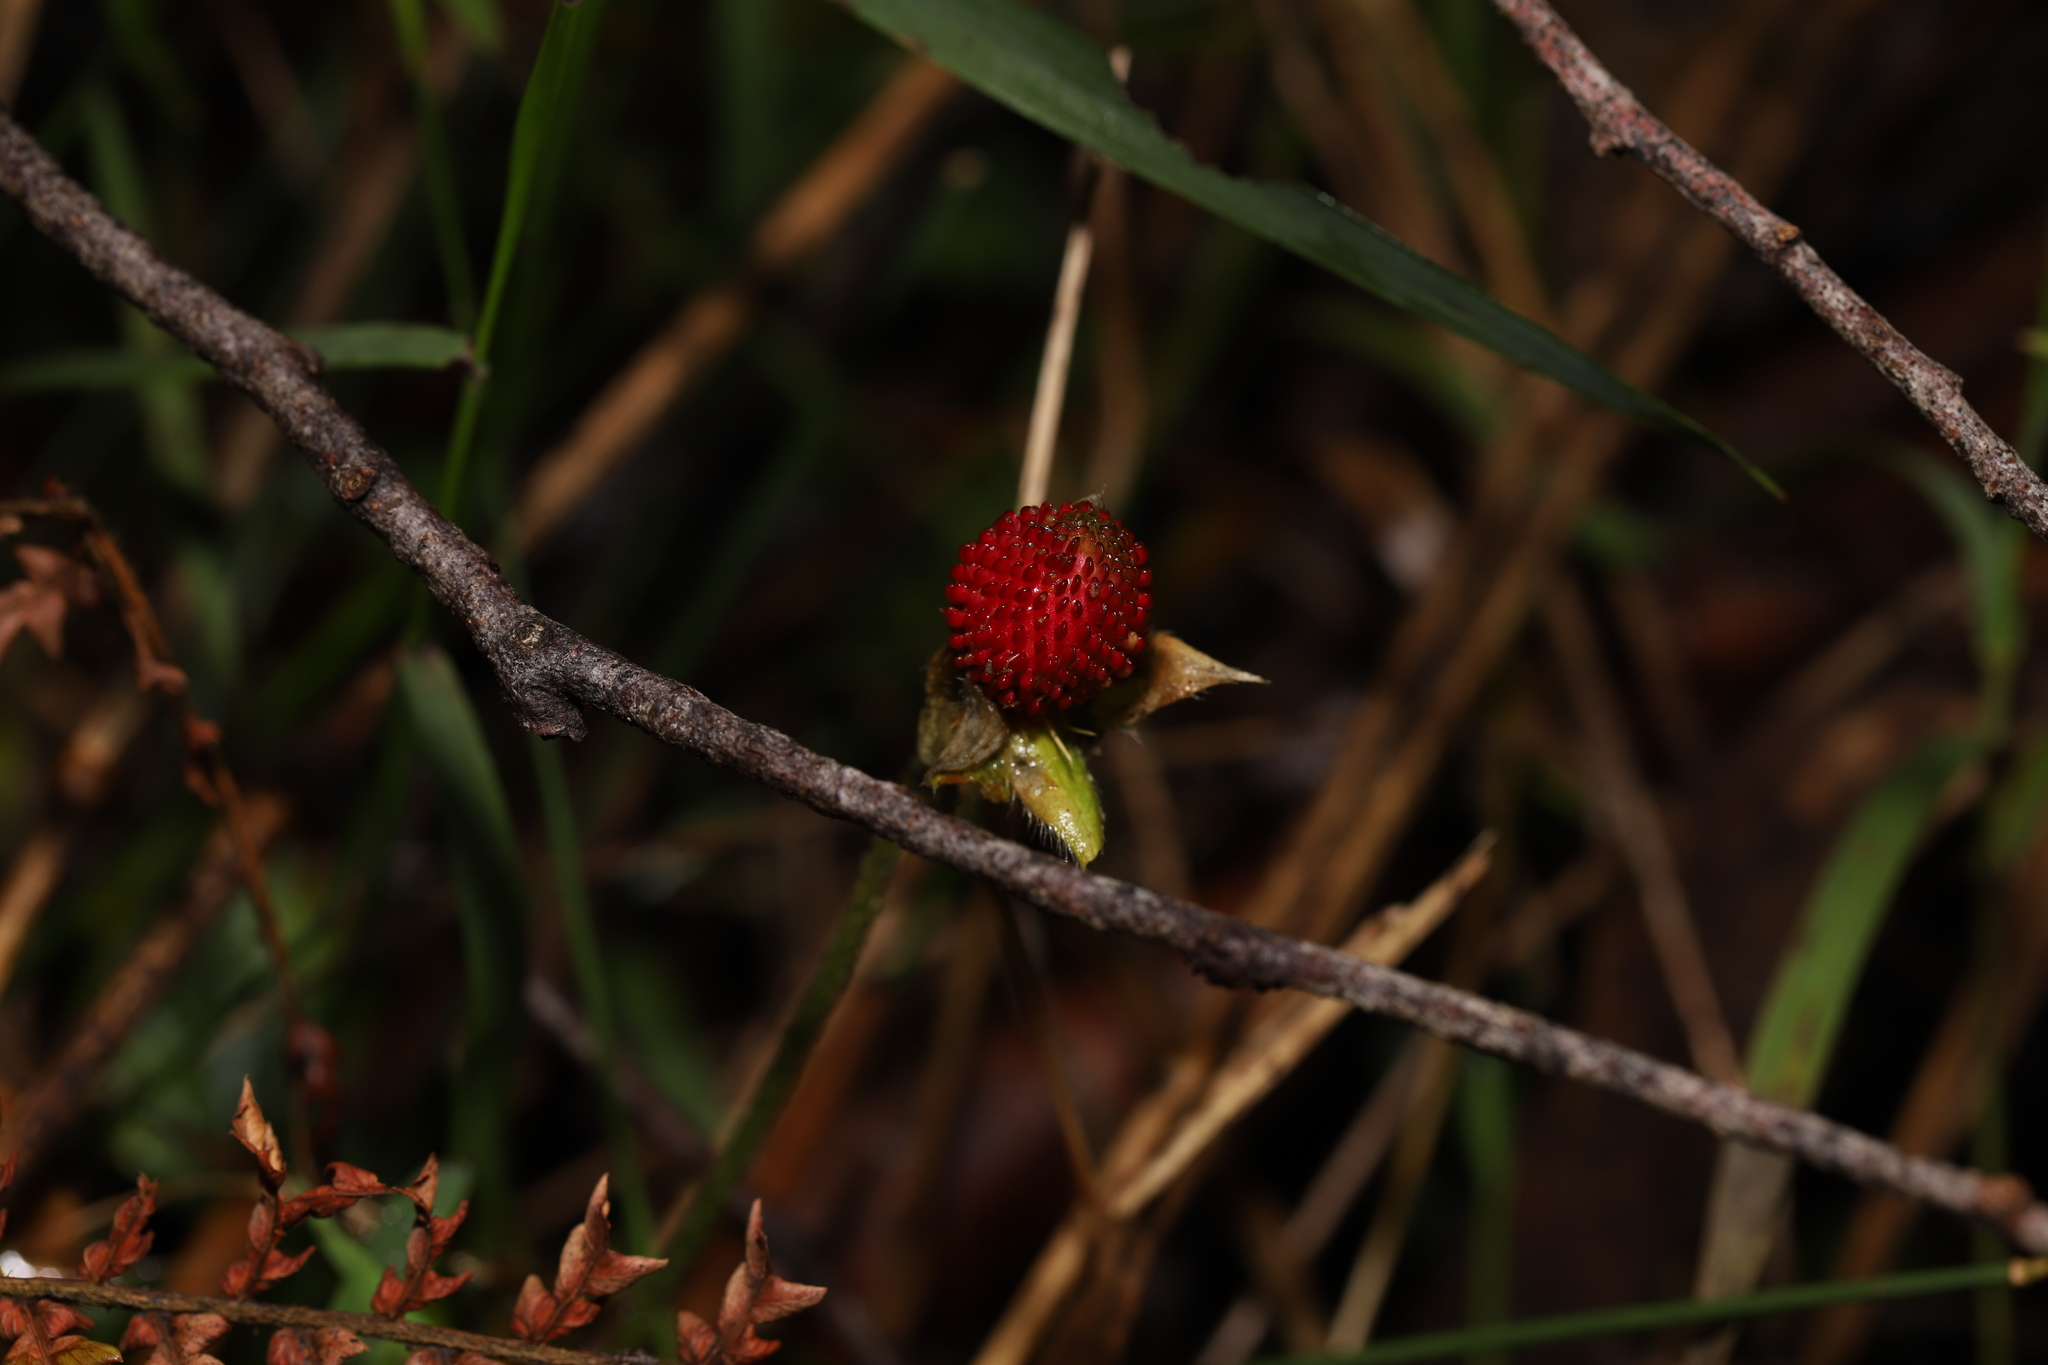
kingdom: Plantae
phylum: Tracheophyta
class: Magnoliopsida
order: Rosales
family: Rosaceae
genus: Potentilla
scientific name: Potentilla indica
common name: Yellow-flowered strawberry
